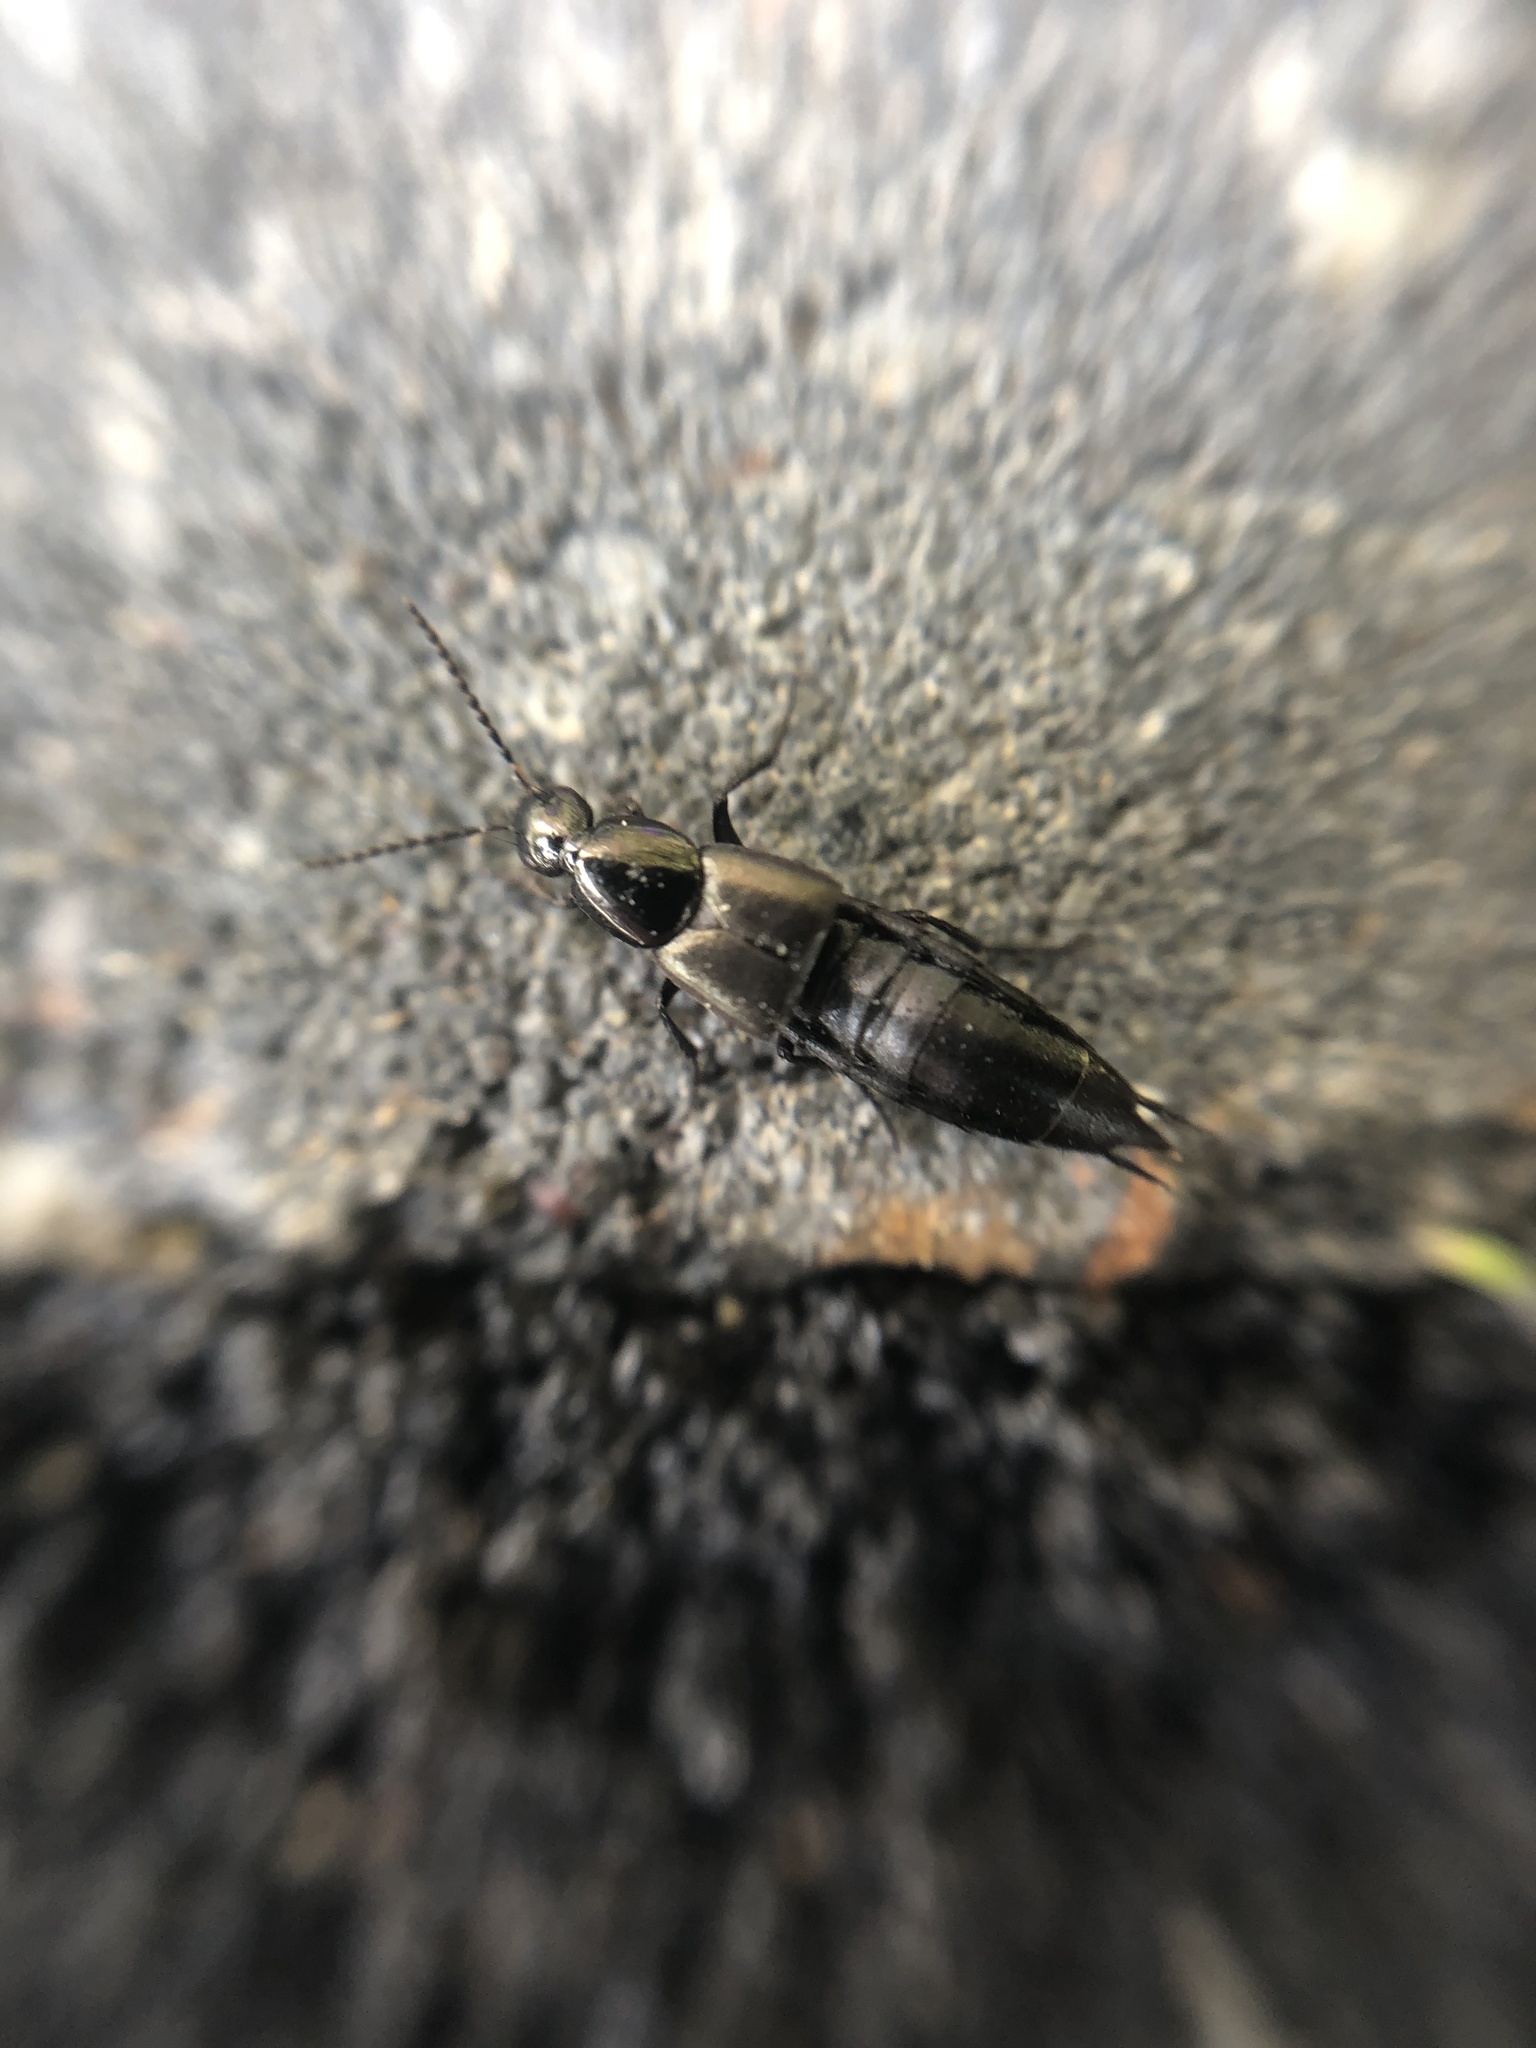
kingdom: Animalia
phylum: Arthropoda
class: Insecta
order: Coleoptera
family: Staphylinidae
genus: Philonthus
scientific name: Philonthus cognatus
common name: Staph beetle
